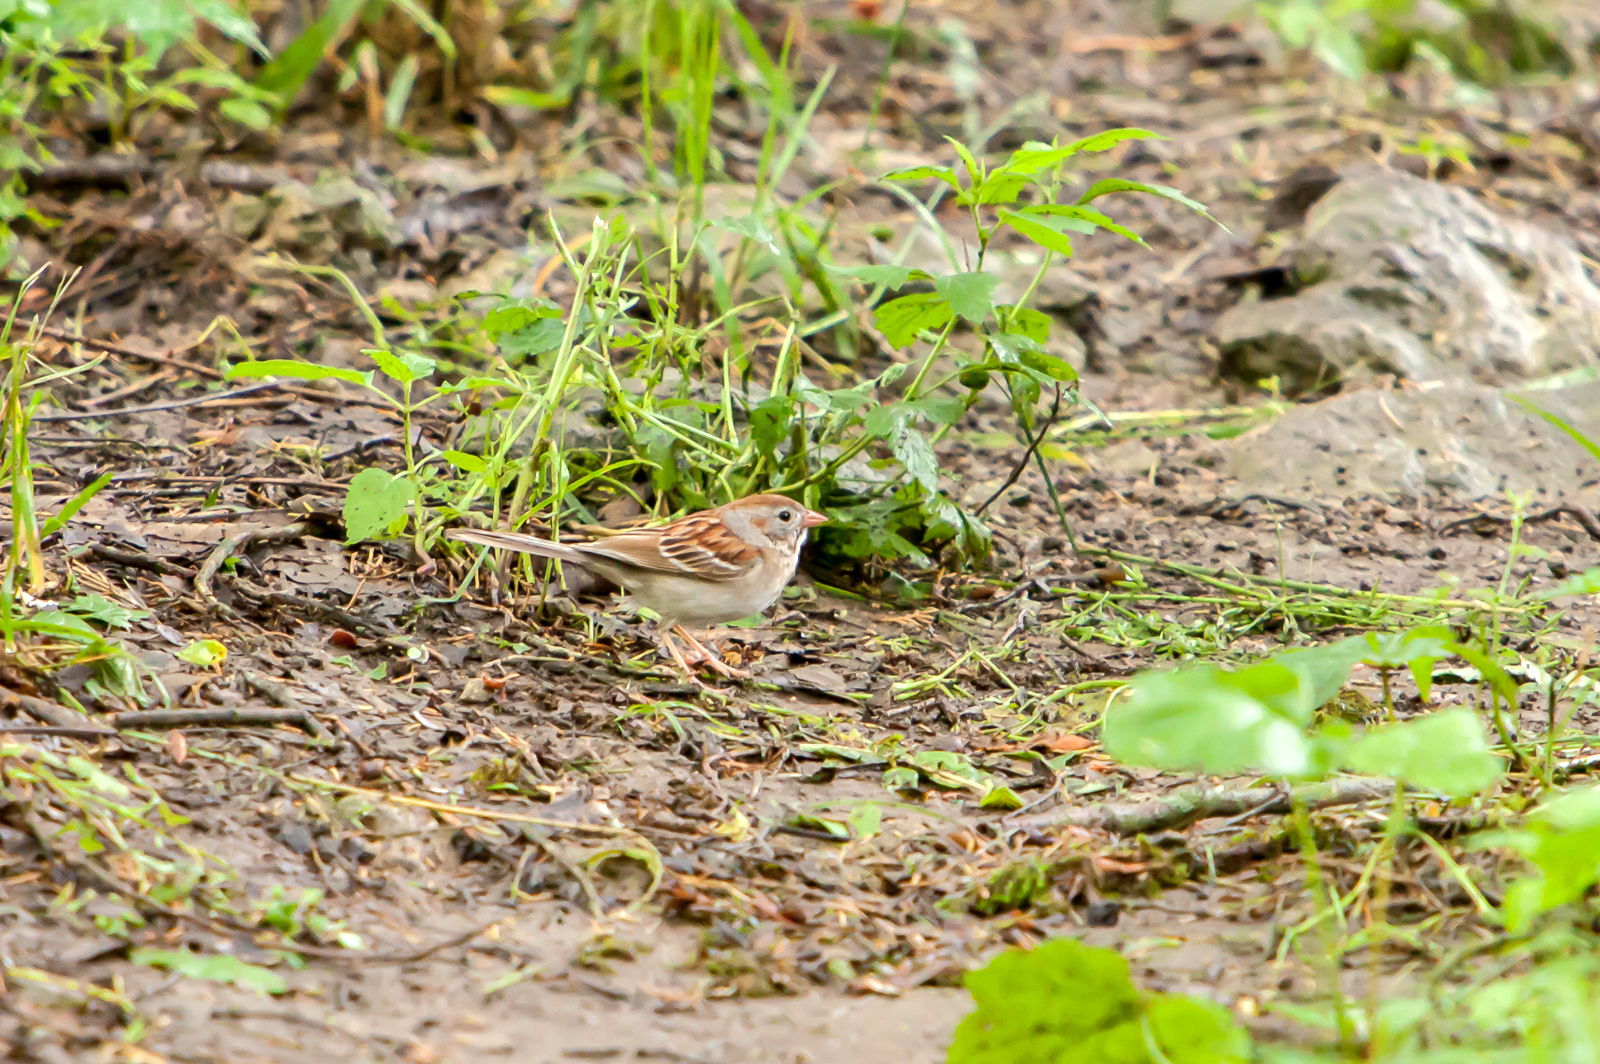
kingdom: Animalia
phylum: Chordata
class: Aves
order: Passeriformes
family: Passerellidae
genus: Spizella
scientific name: Spizella pusilla
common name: Field sparrow
